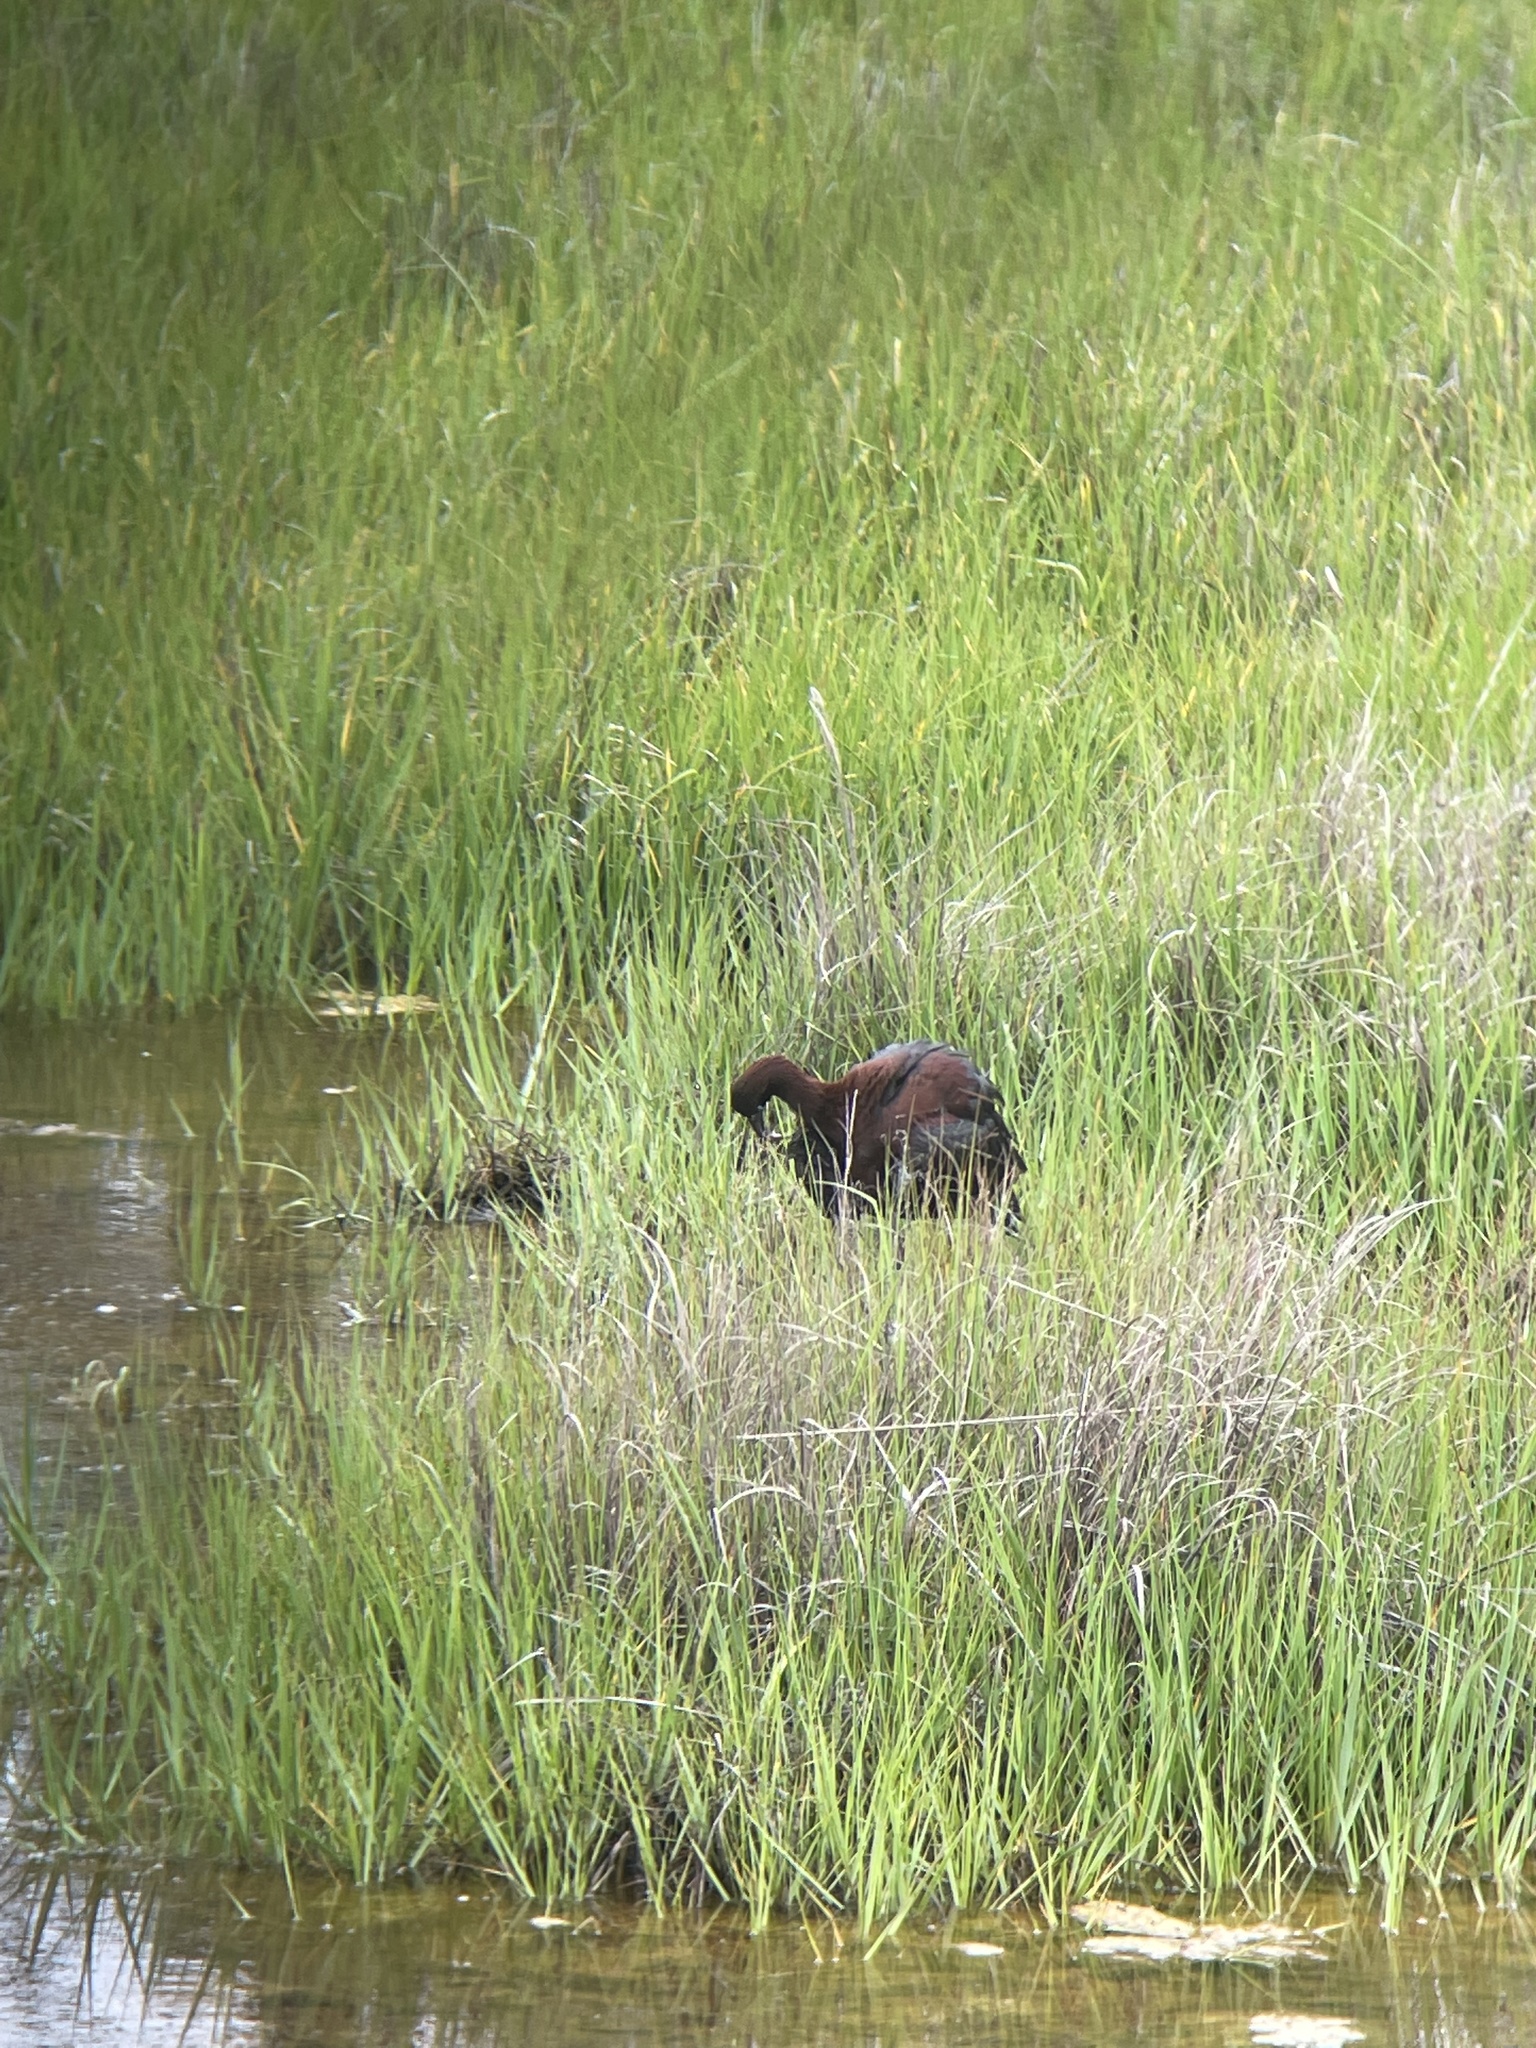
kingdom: Animalia
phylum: Chordata
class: Aves
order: Pelecaniformes
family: Threskiornithidae
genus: Plegadis
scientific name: Plegadis falcinellus
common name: Glossy ibis
